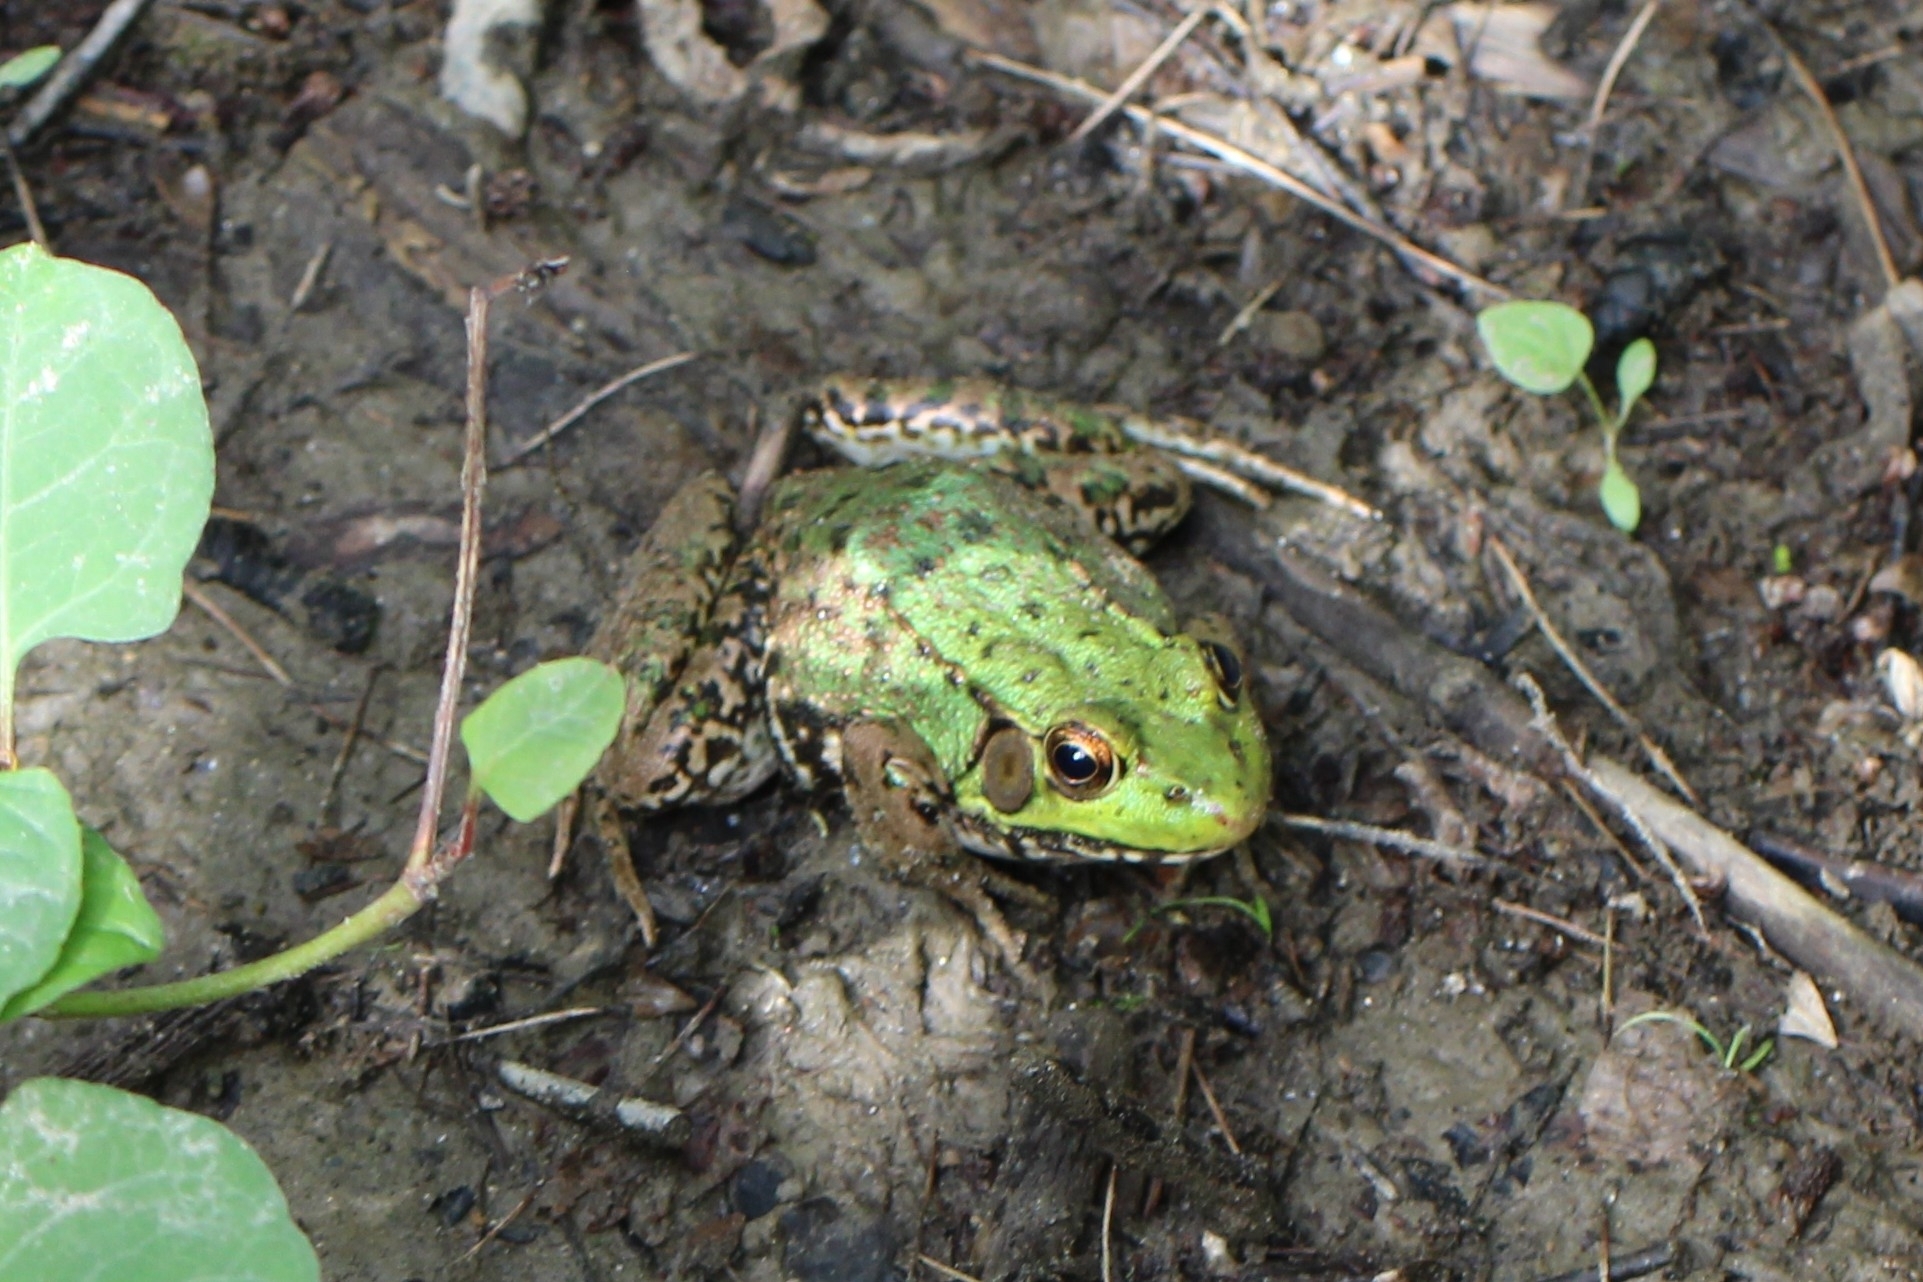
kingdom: Animalia
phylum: Chordata
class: Amphibia
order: Anura
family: Ranidae
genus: Lithobates
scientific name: Lithobates clamitans
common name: Green frog
